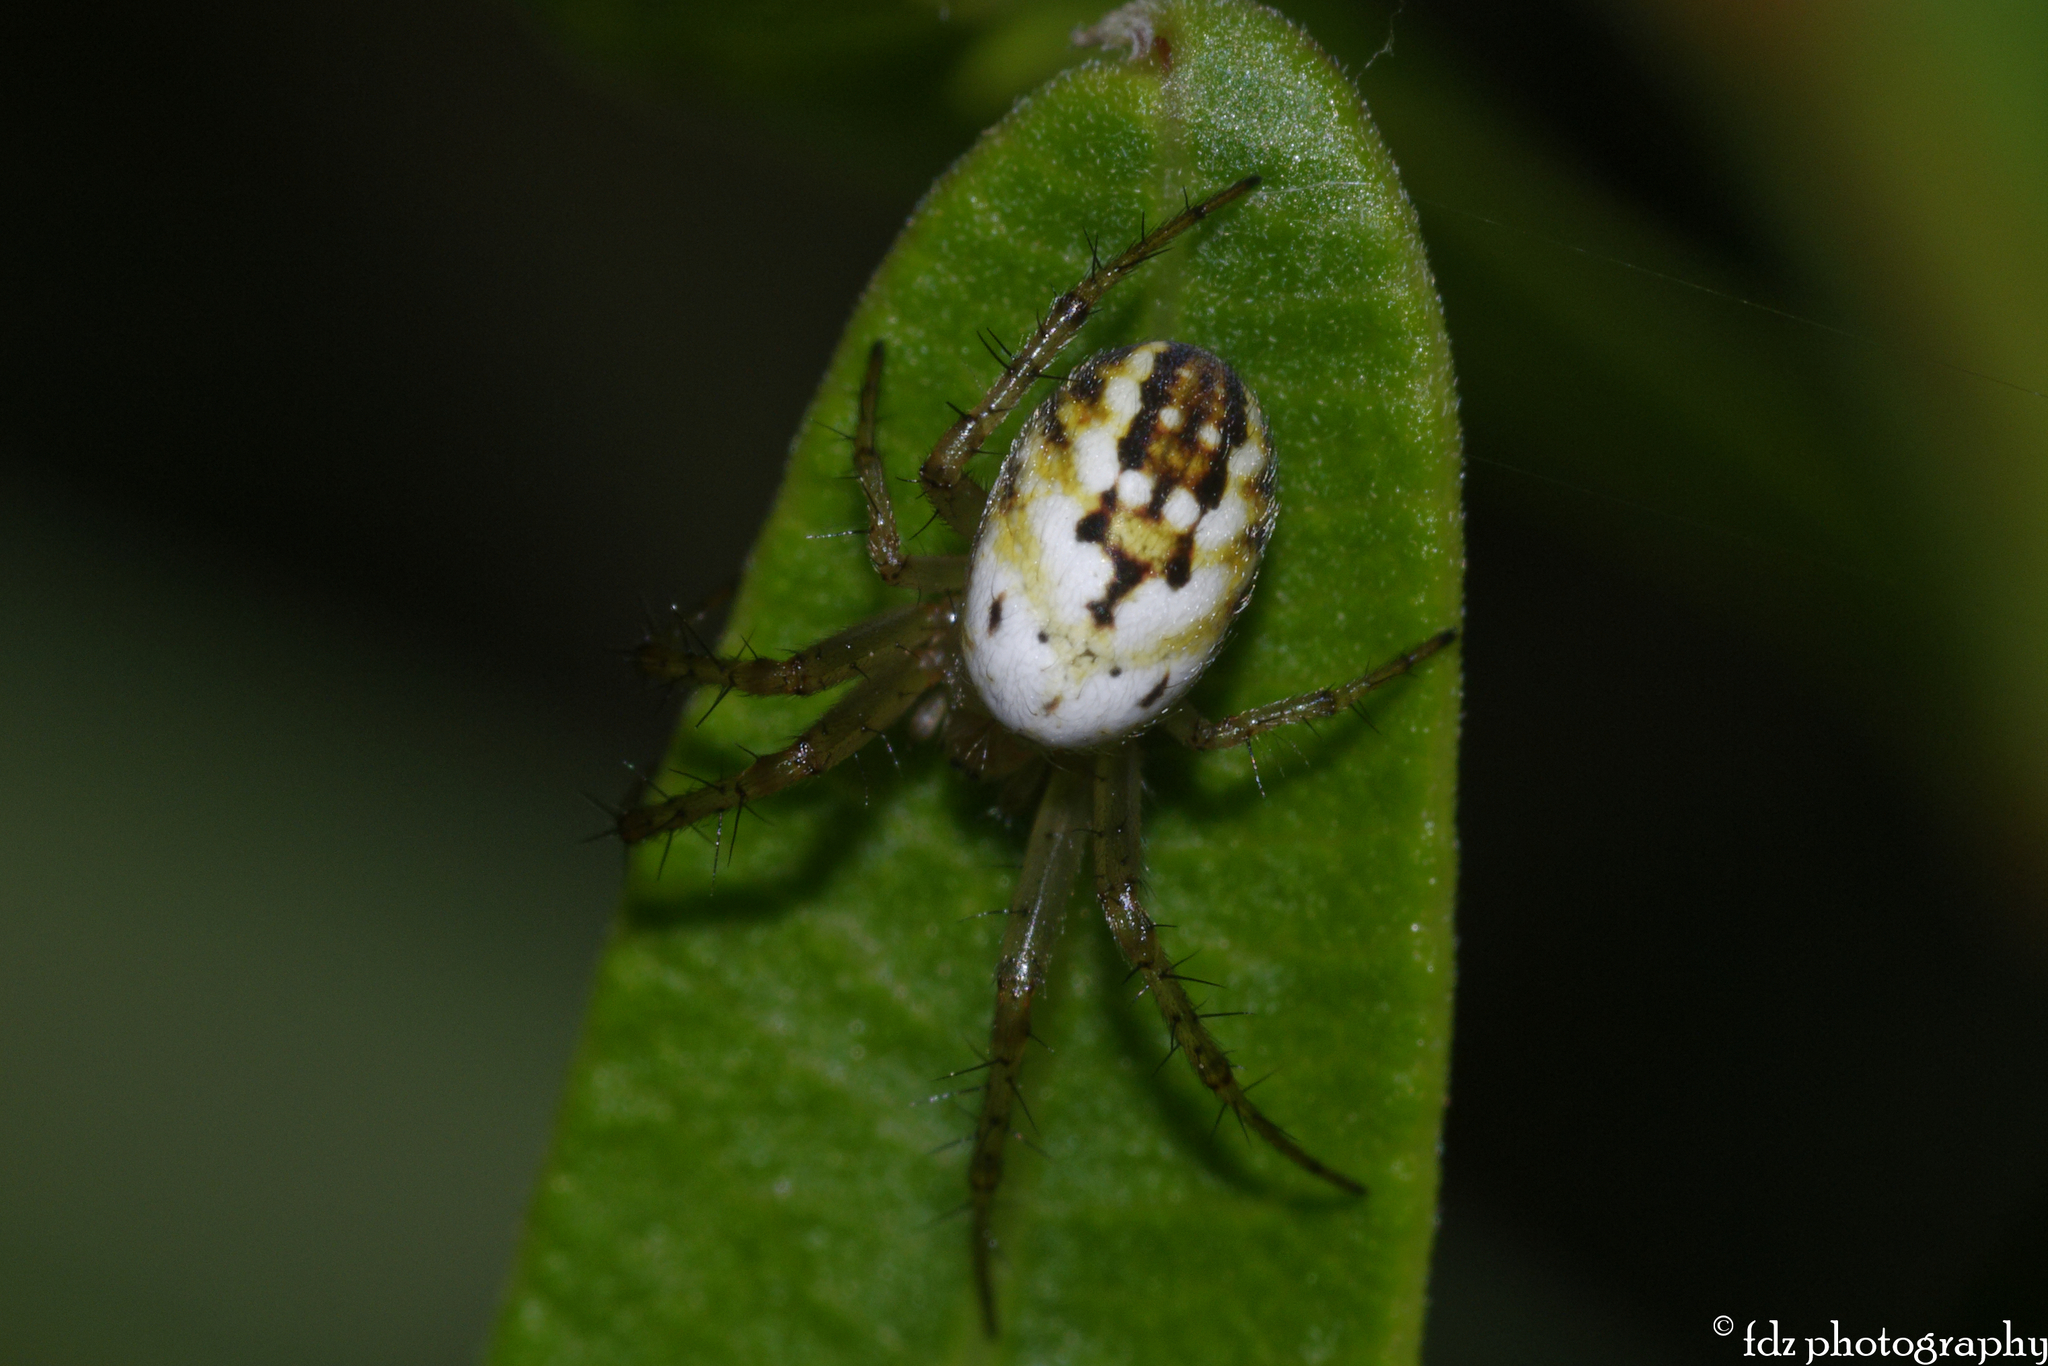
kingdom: Animalia
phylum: Arthropoda
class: Arachnida
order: Araneae
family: Araneidae
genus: Mangora
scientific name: Mangora acalypha
